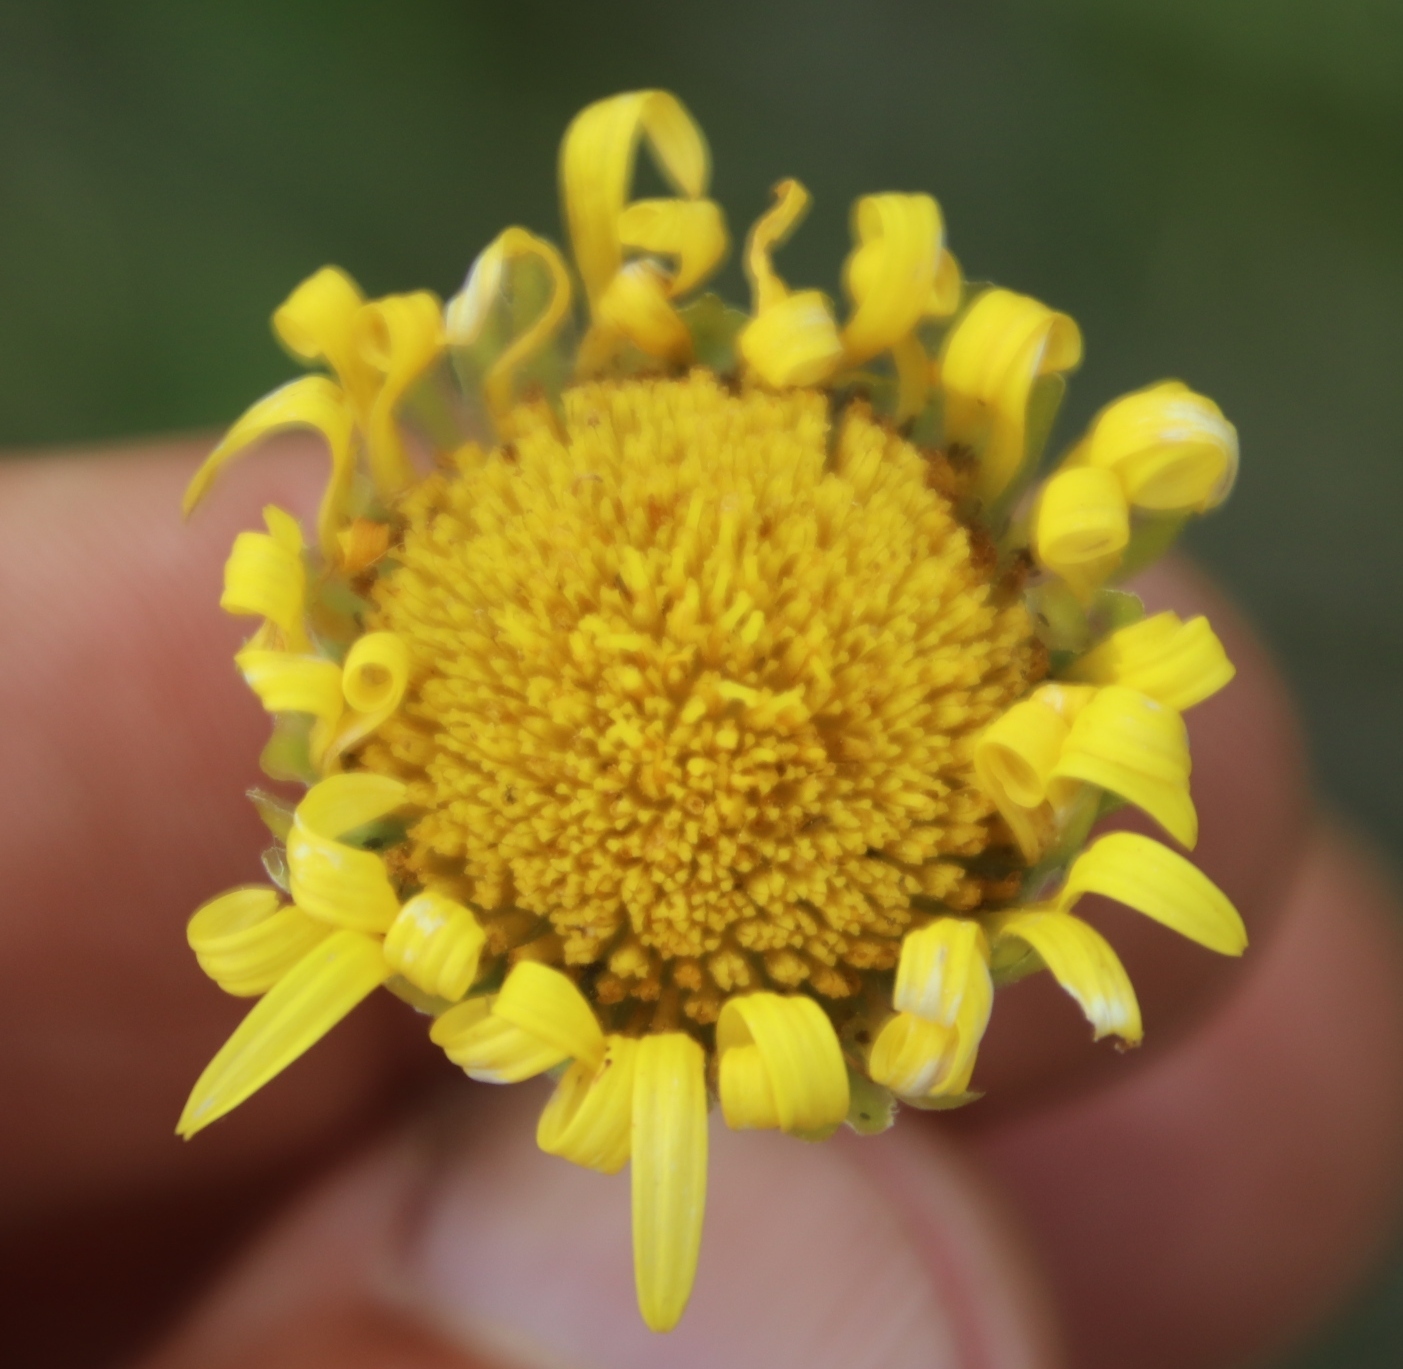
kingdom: Plantae
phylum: Tracheophyta
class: Magnoliopsida
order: Asterales
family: Asteraceae
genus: Haplocarpha
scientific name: Haplocarpha scaposa
